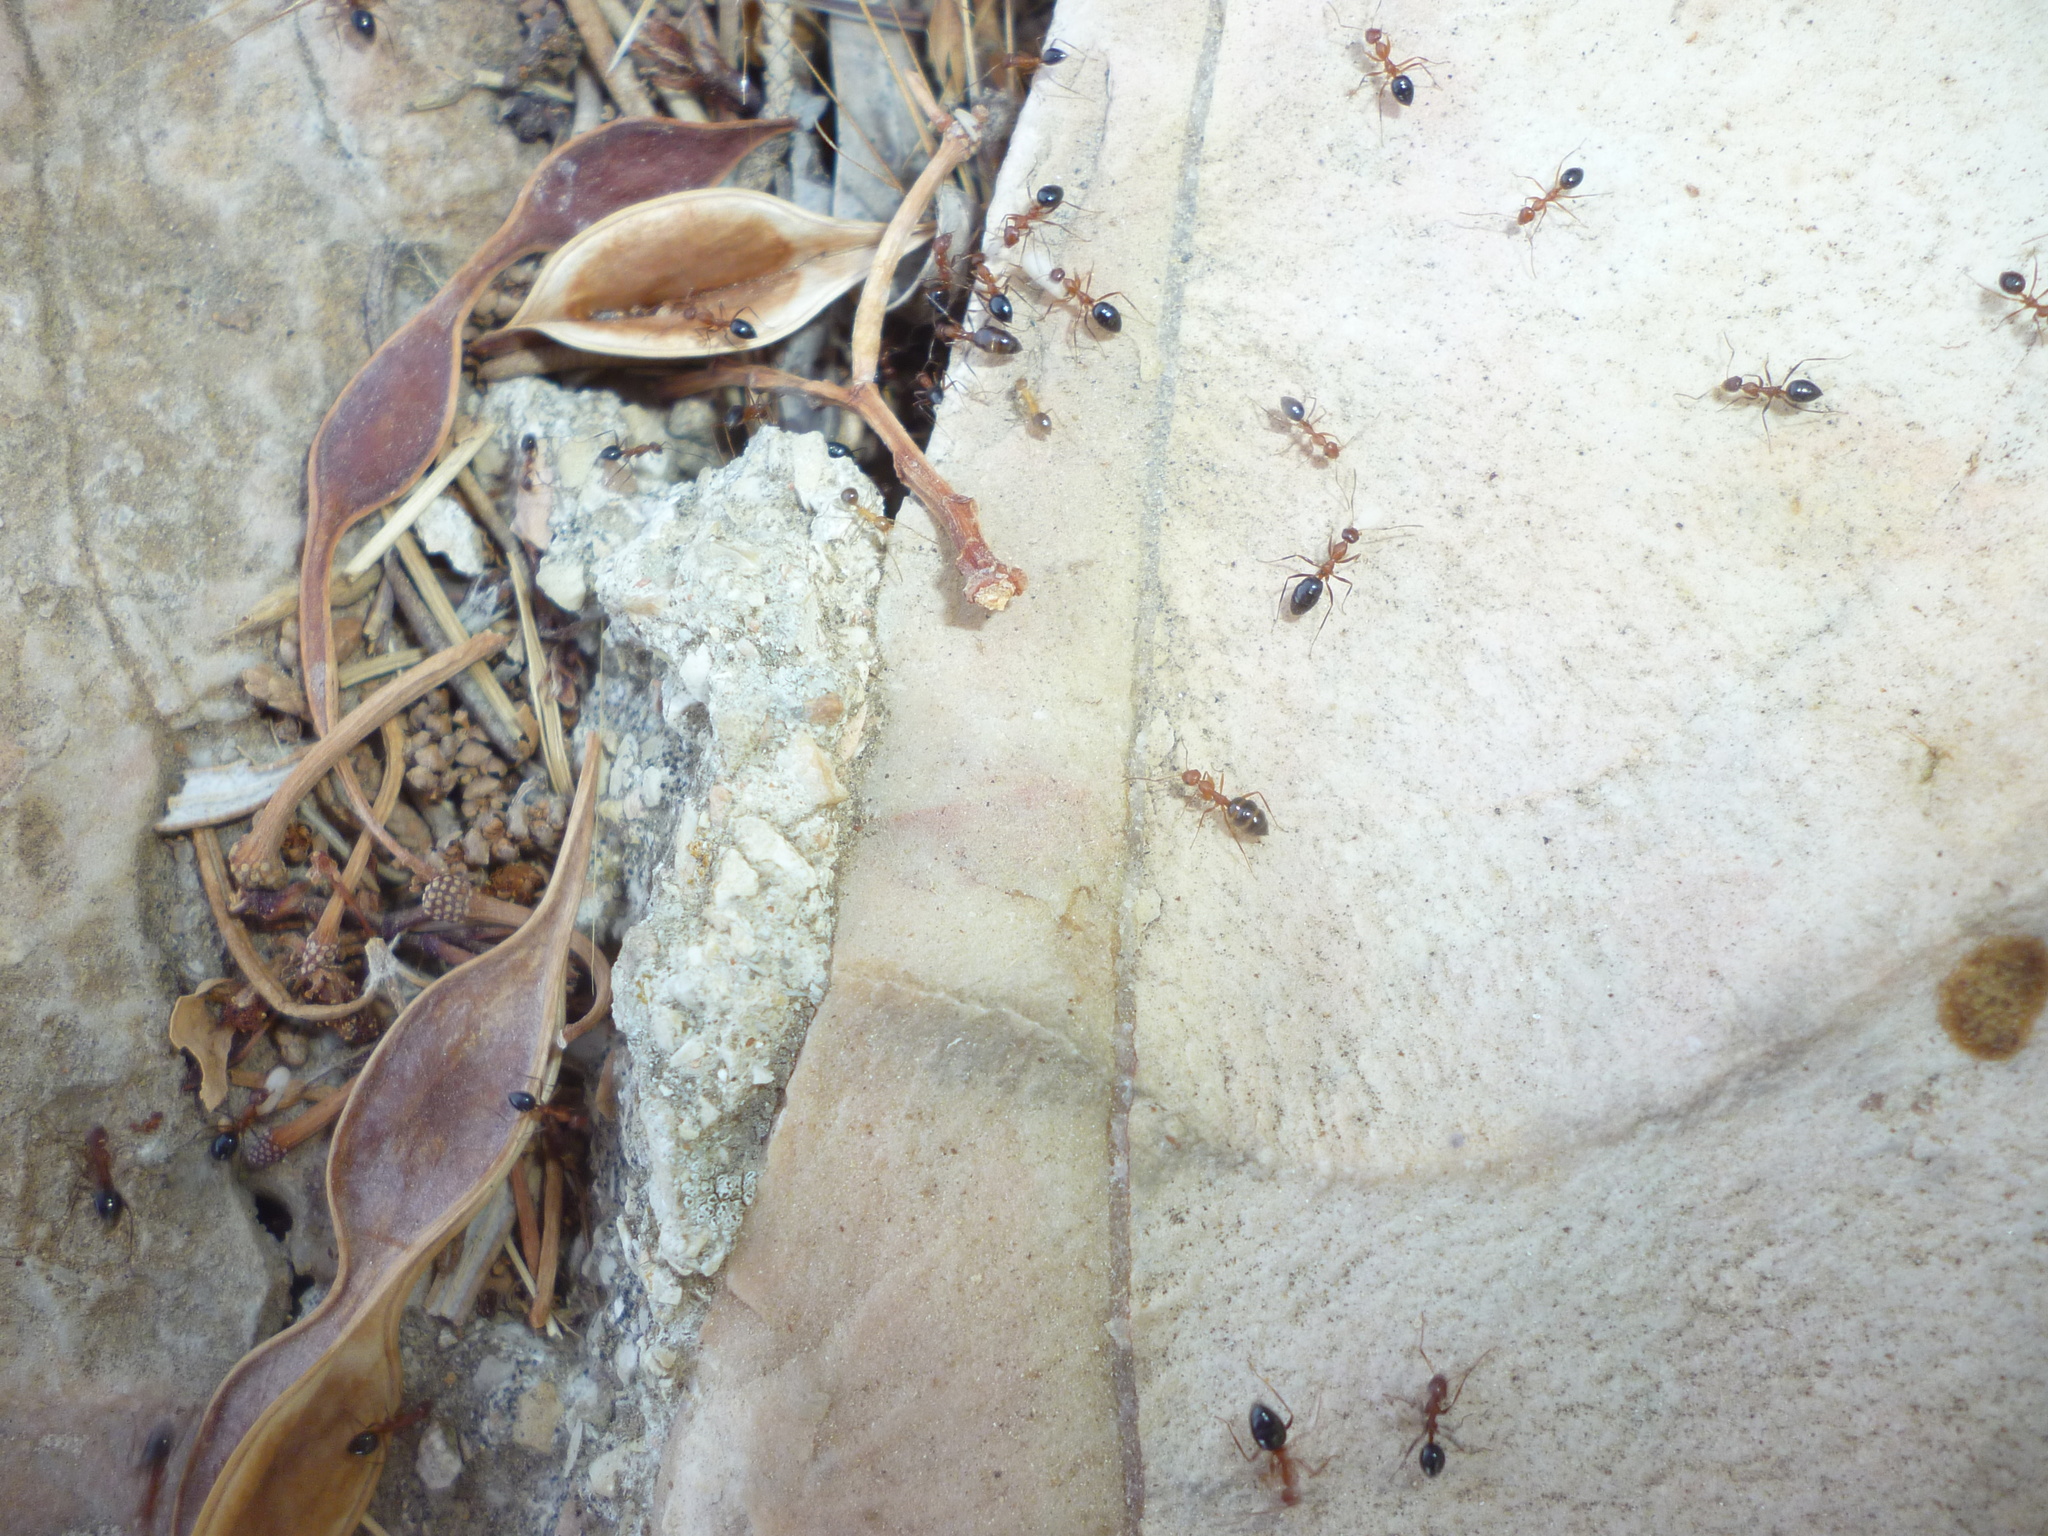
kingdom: Animalia
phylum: Arthropoda
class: Insecta
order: Hymenoptera
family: Formicidae
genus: Lepisiota
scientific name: Lepisiota frauenfeldi
